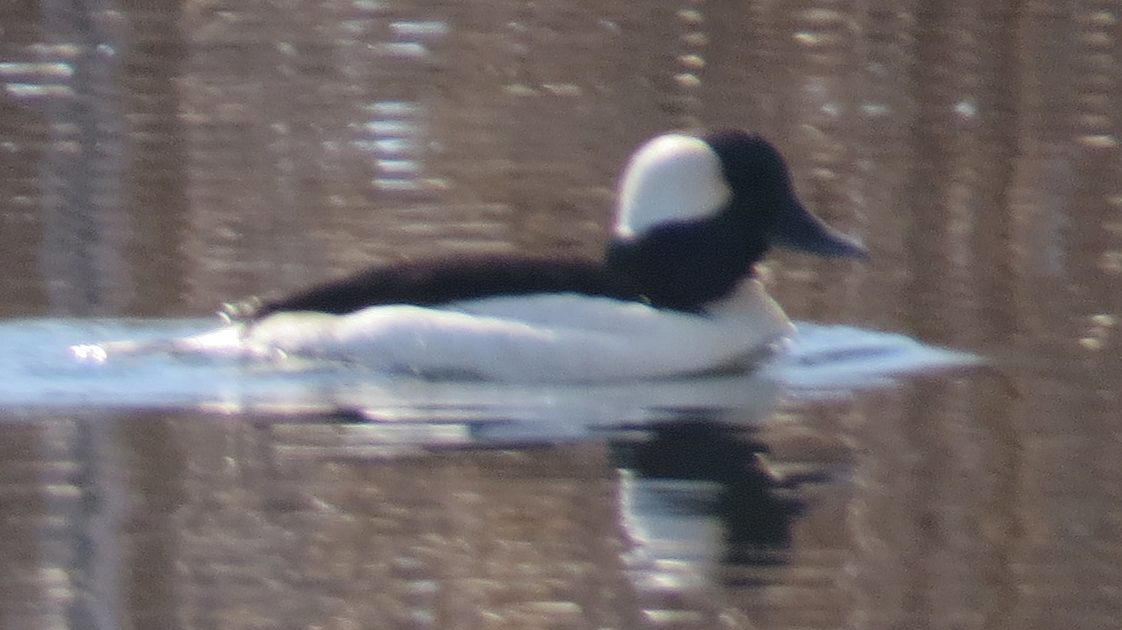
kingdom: Animalia
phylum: Chordata
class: Aves
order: Anseriformes
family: Anatidae
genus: Bucephala
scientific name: Bucephala albeola
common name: Bufflehead
